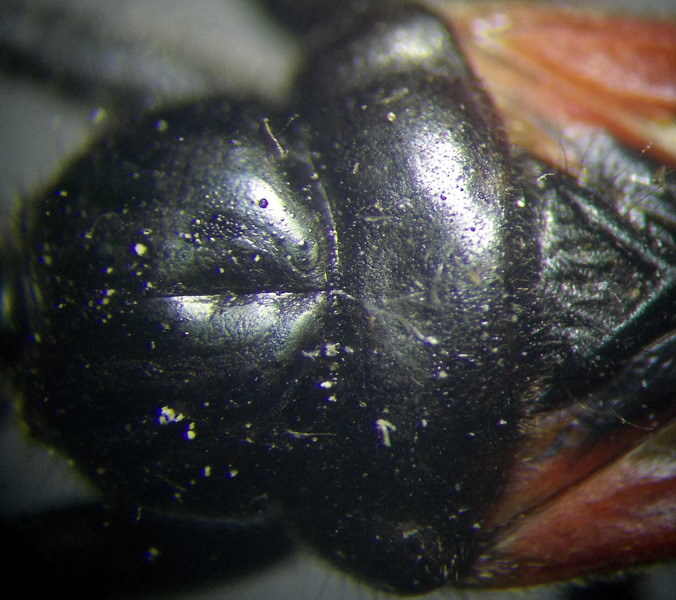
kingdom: Animalia
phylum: Arthropoda
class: Insecta
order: Hemiptera
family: Reduviidae
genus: Peirates
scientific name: Peirates hybridus
